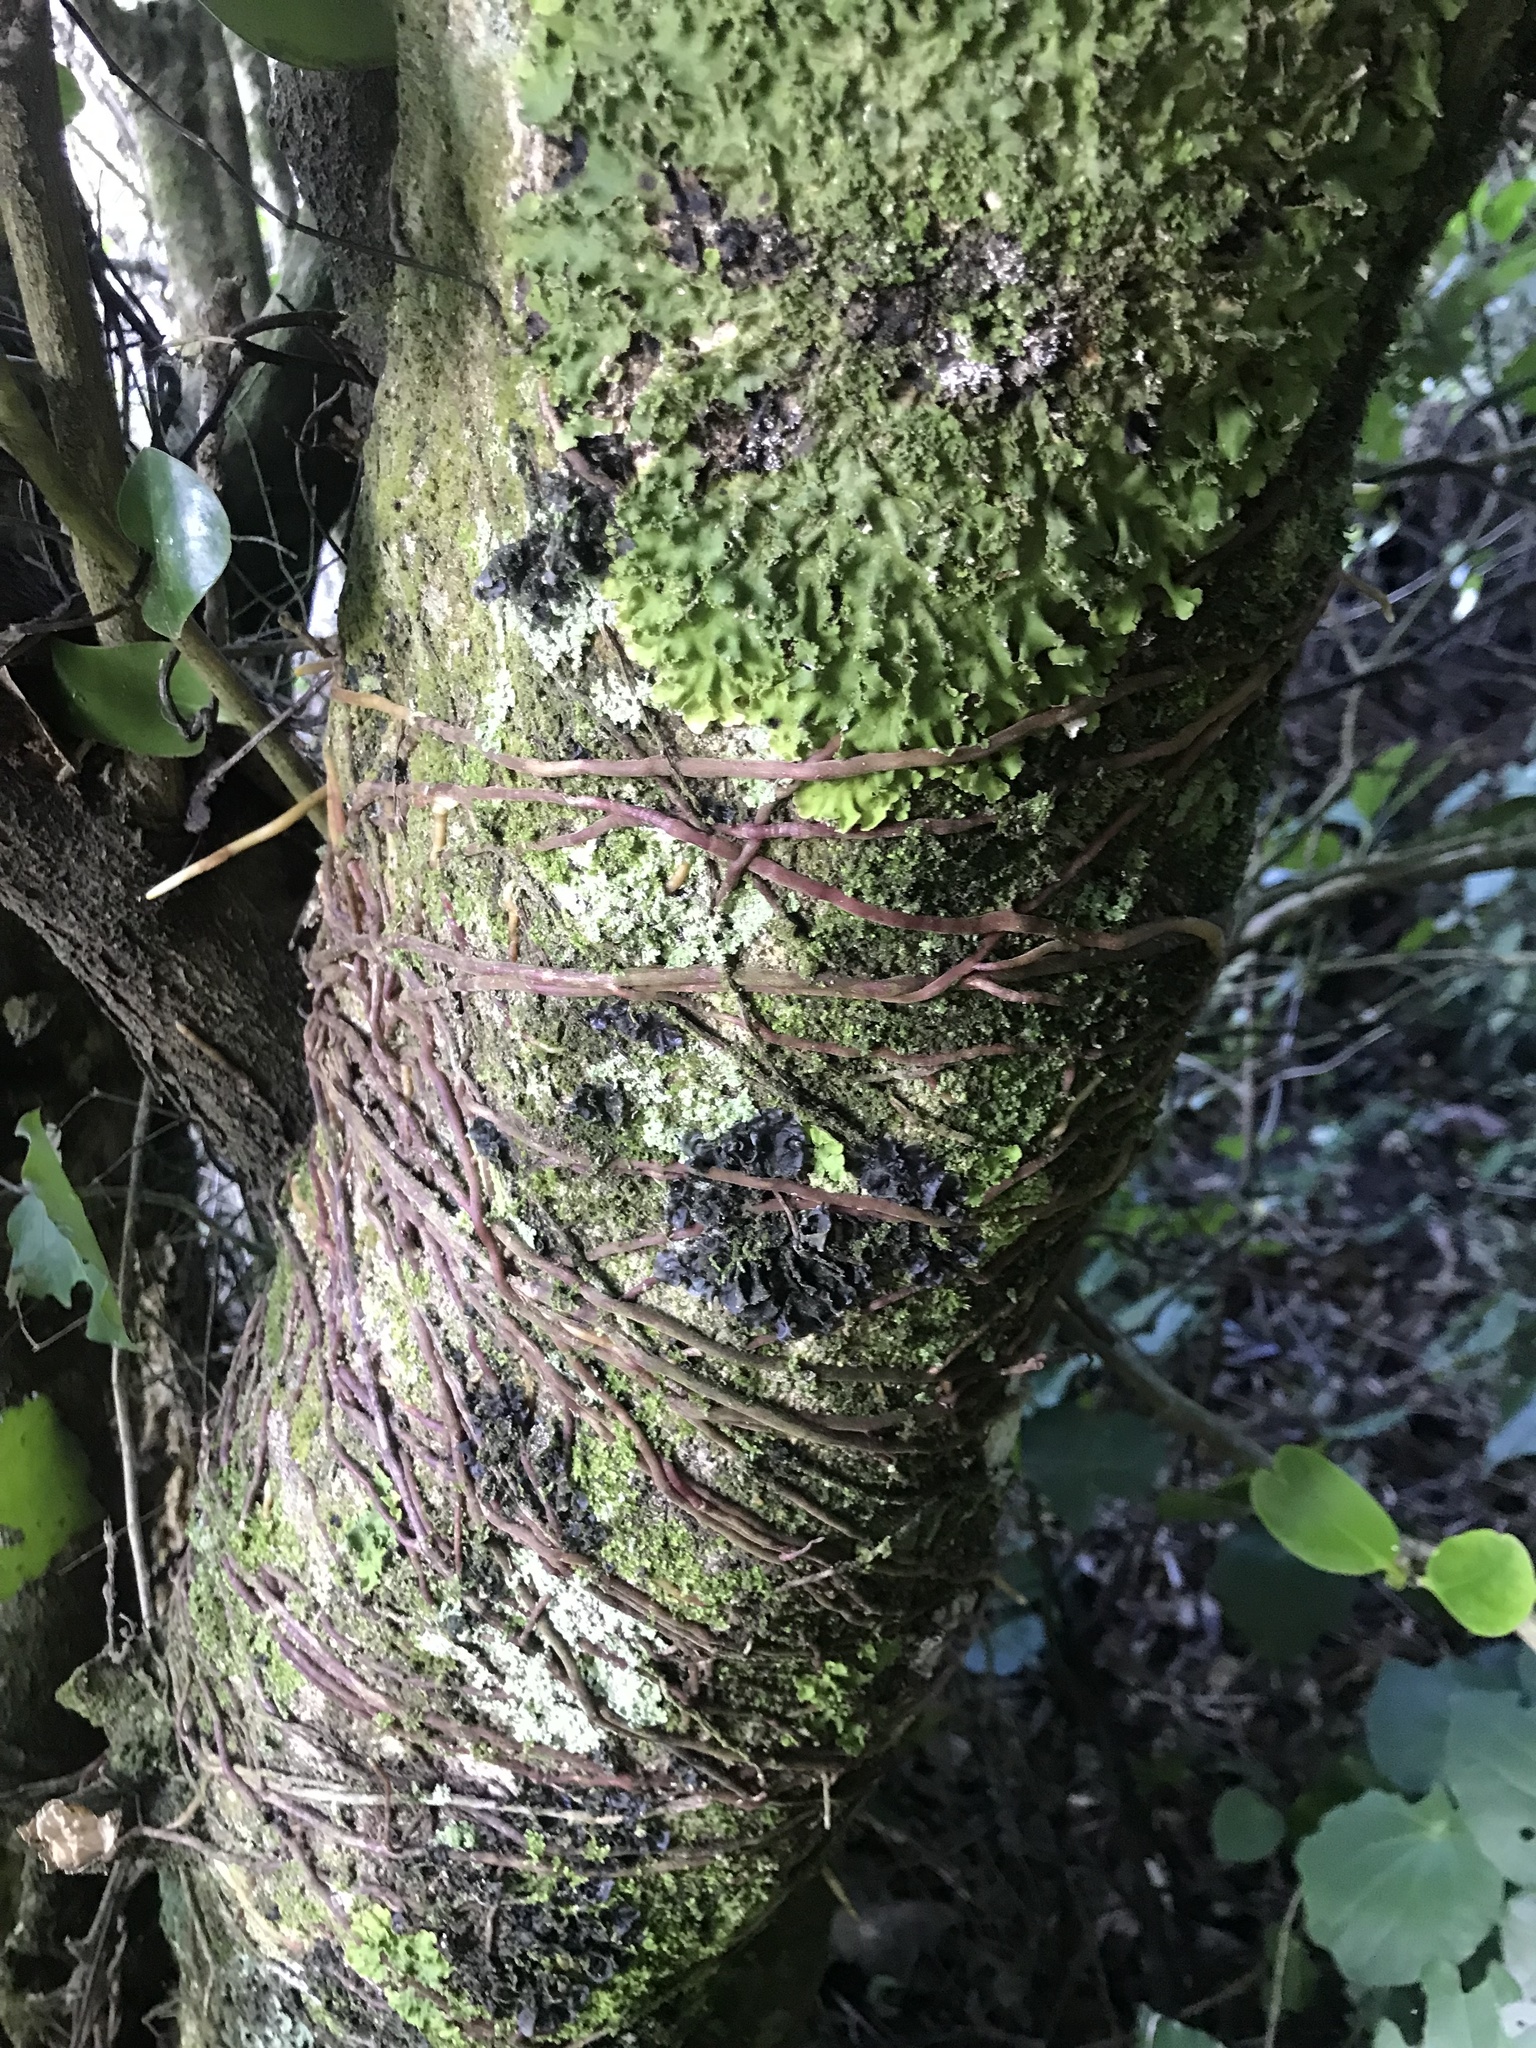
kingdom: Plantae
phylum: Tracheophyta
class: Magnoliopsida
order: Apiales
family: Griseliniaceae
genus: Griselinia
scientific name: Griselinia lucida
